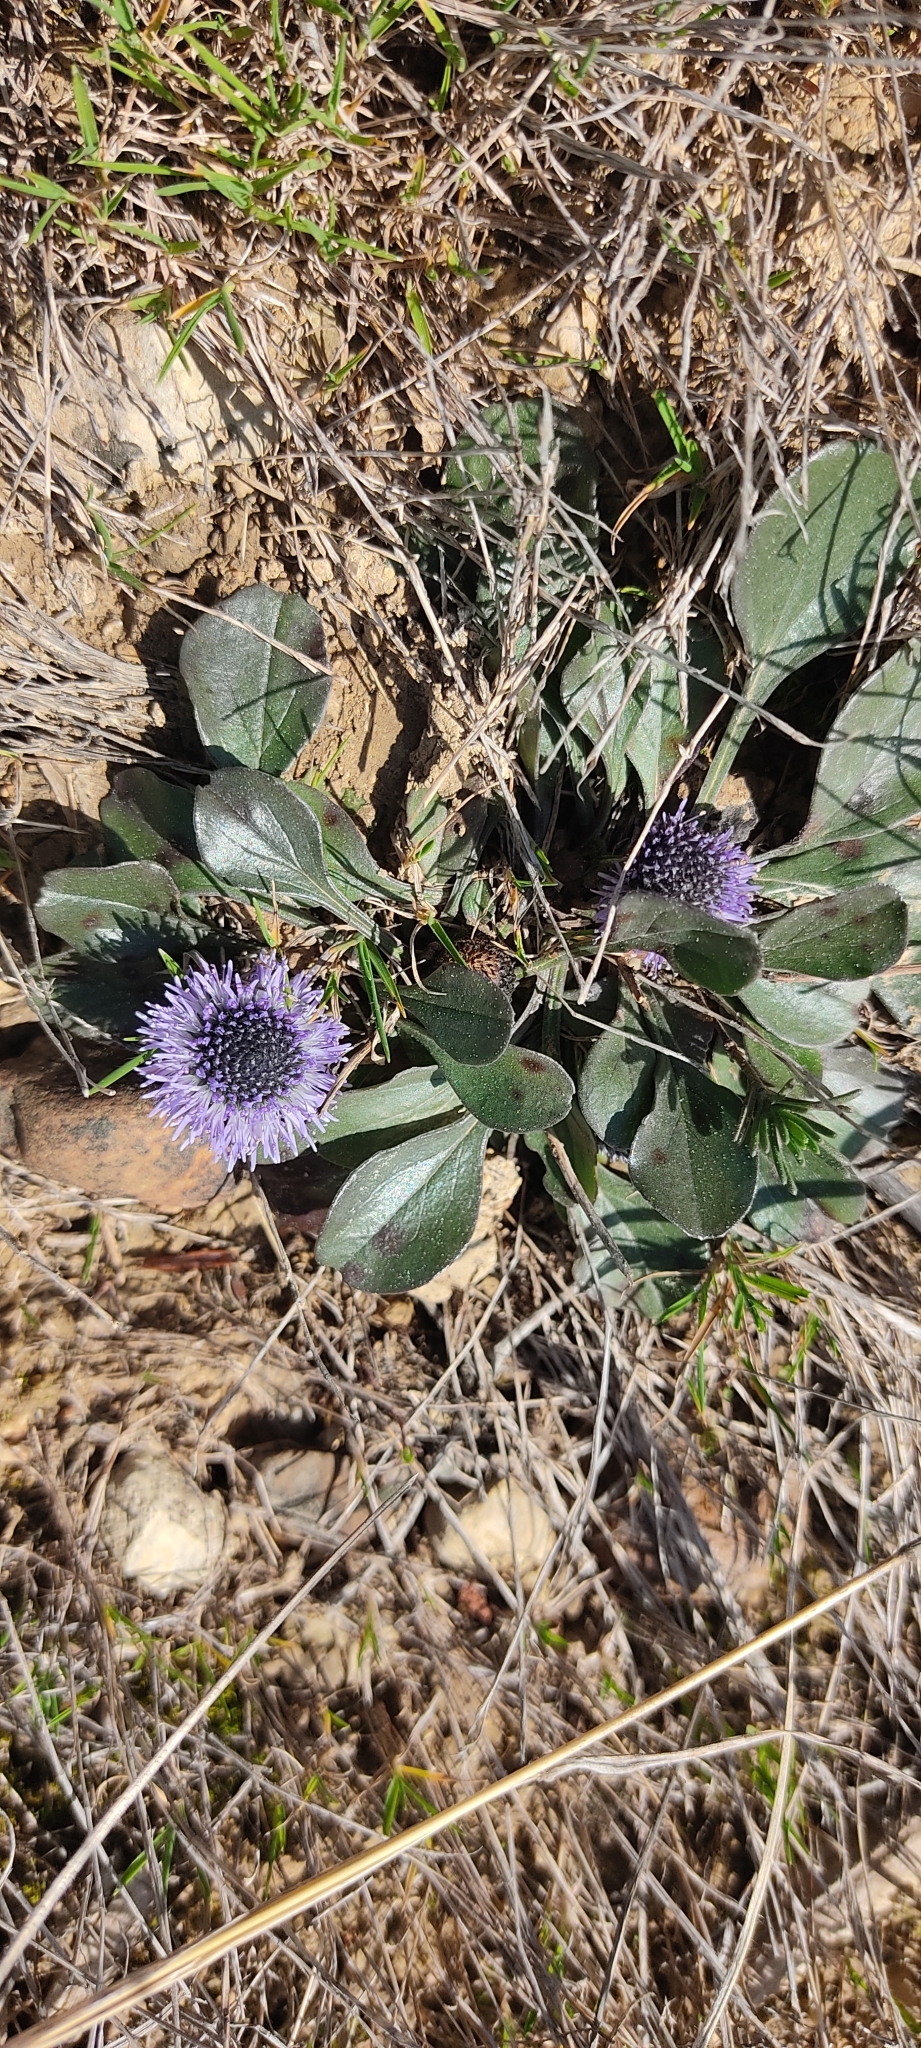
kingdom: Plantae
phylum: Tracheophyta
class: Magnoliopsida
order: Lamiales
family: Plantaginaceae
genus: Globularia
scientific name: Globularia vulgaris
